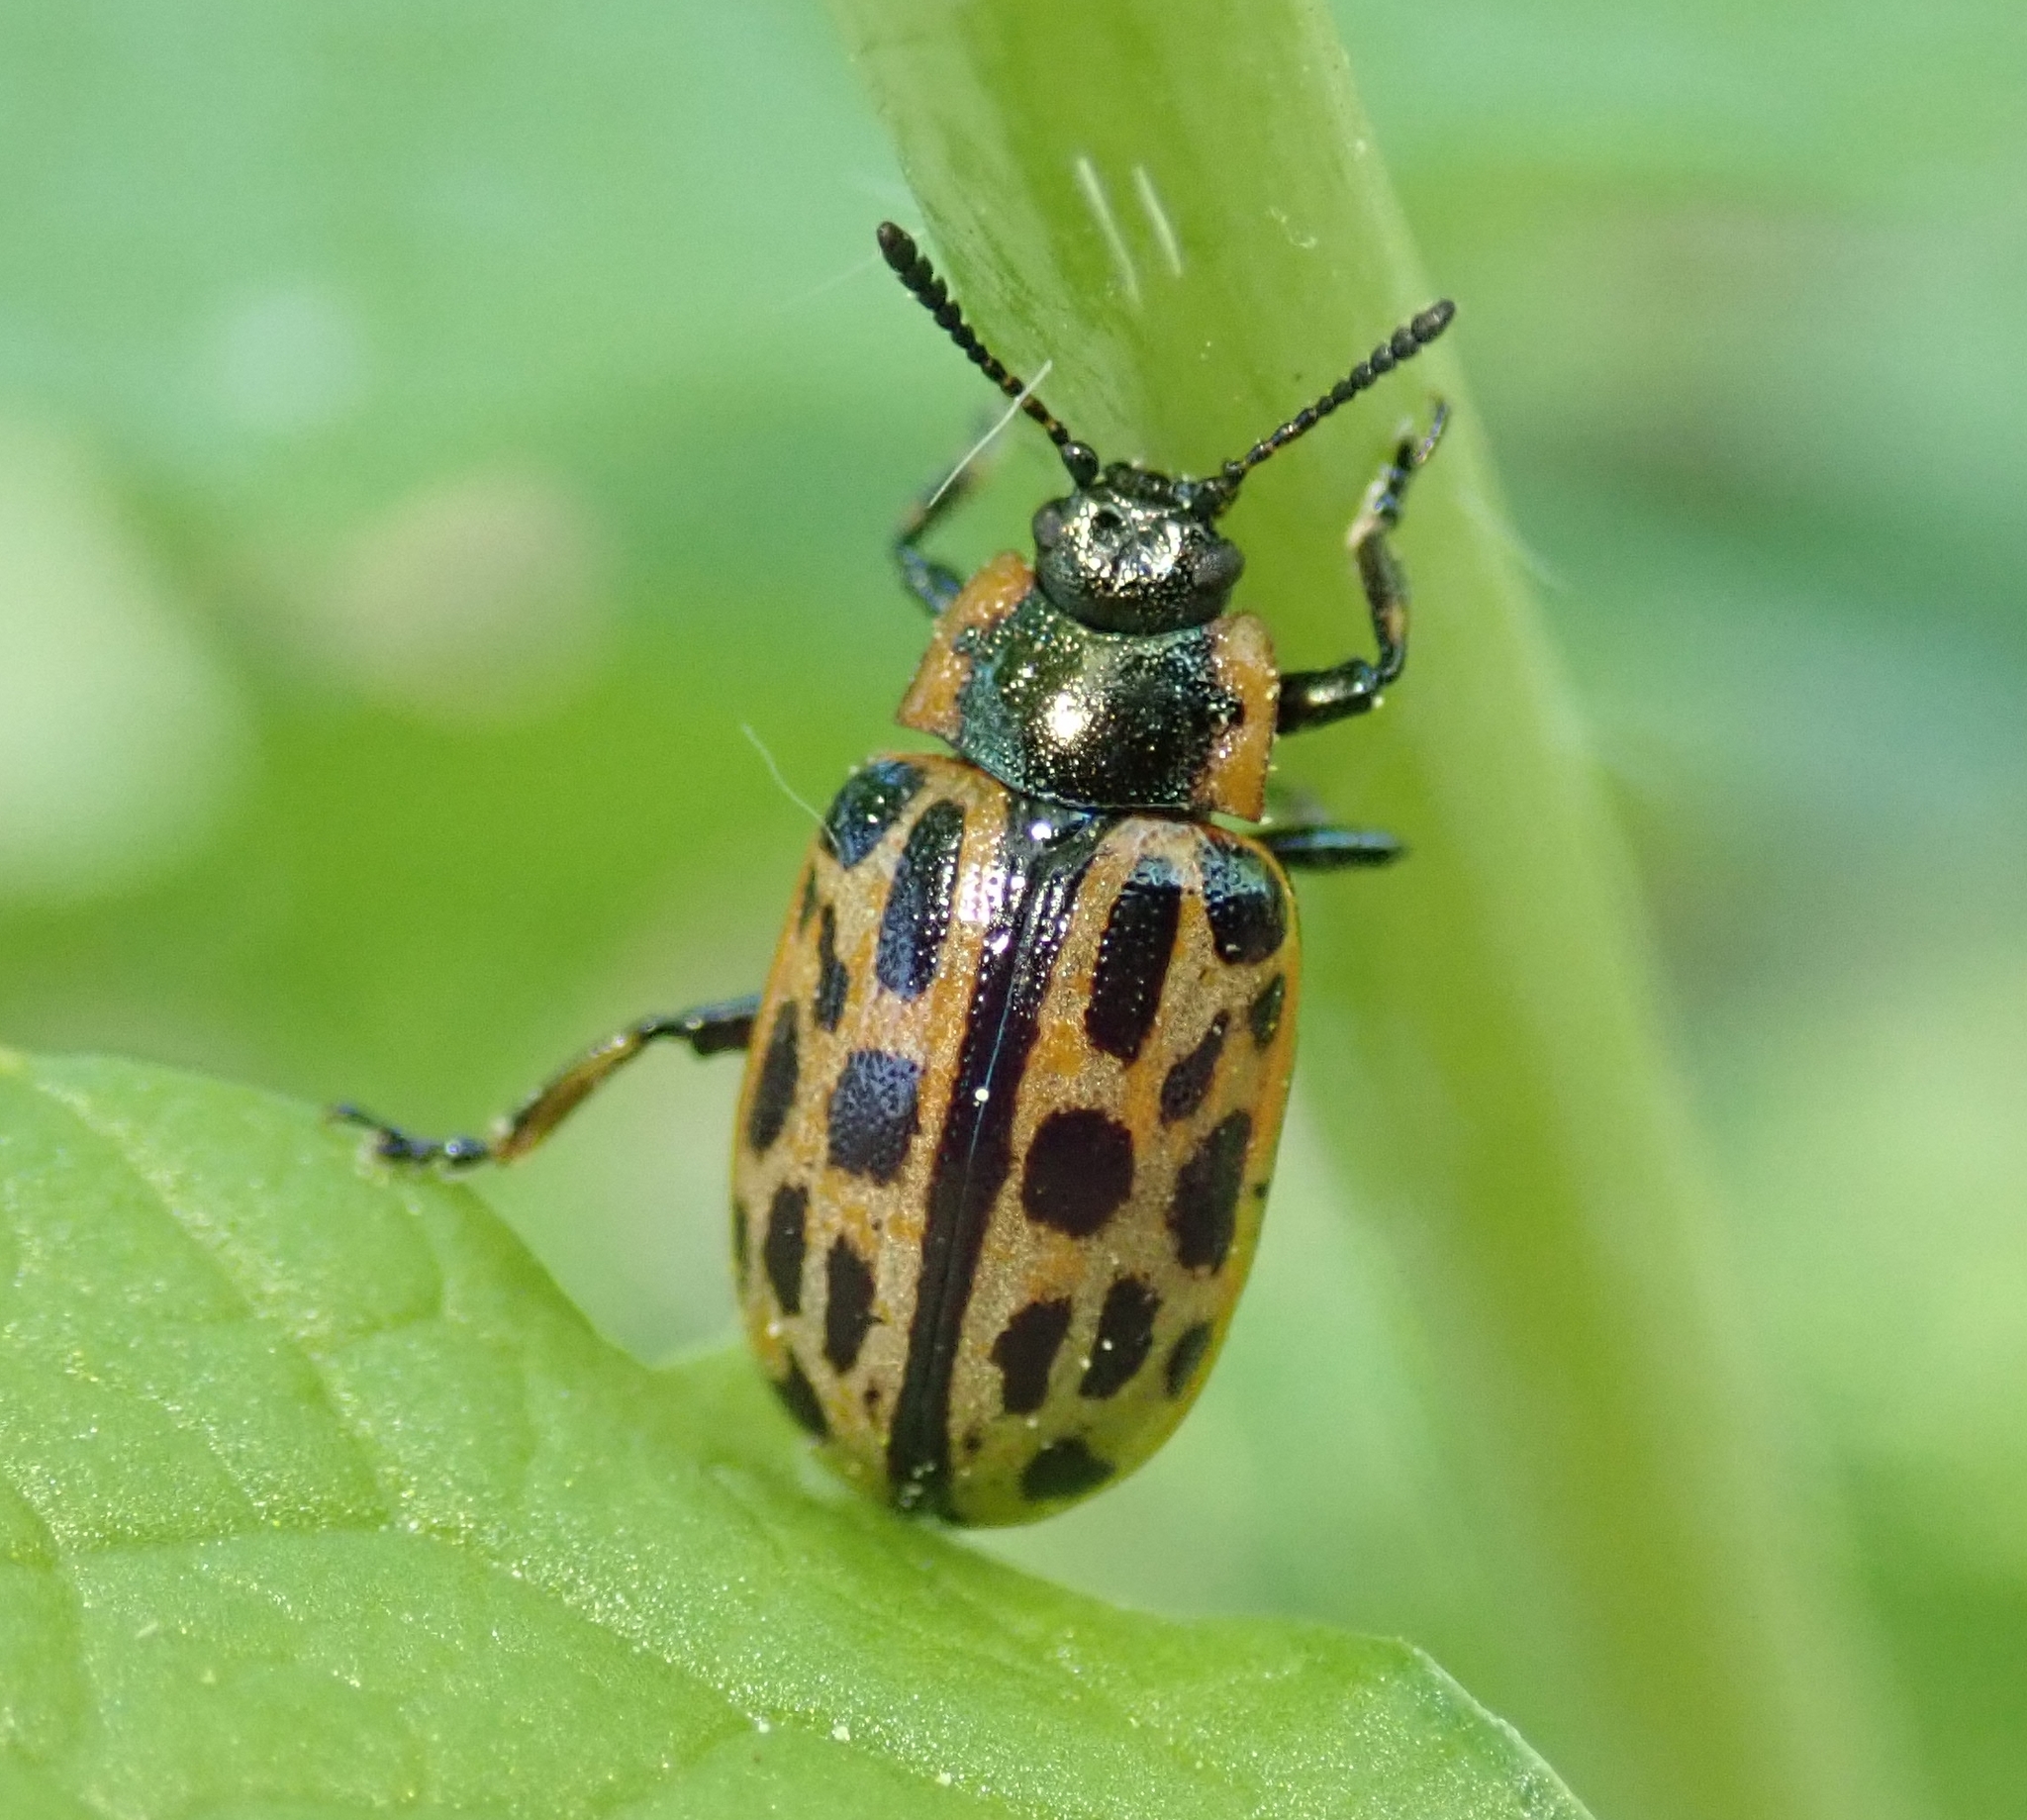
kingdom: Animalia
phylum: Arthropoda
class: Insecta
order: Coleoptera
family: Chrysomelidae
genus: Chrysomela
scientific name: Chrysomela vigintipunctata
